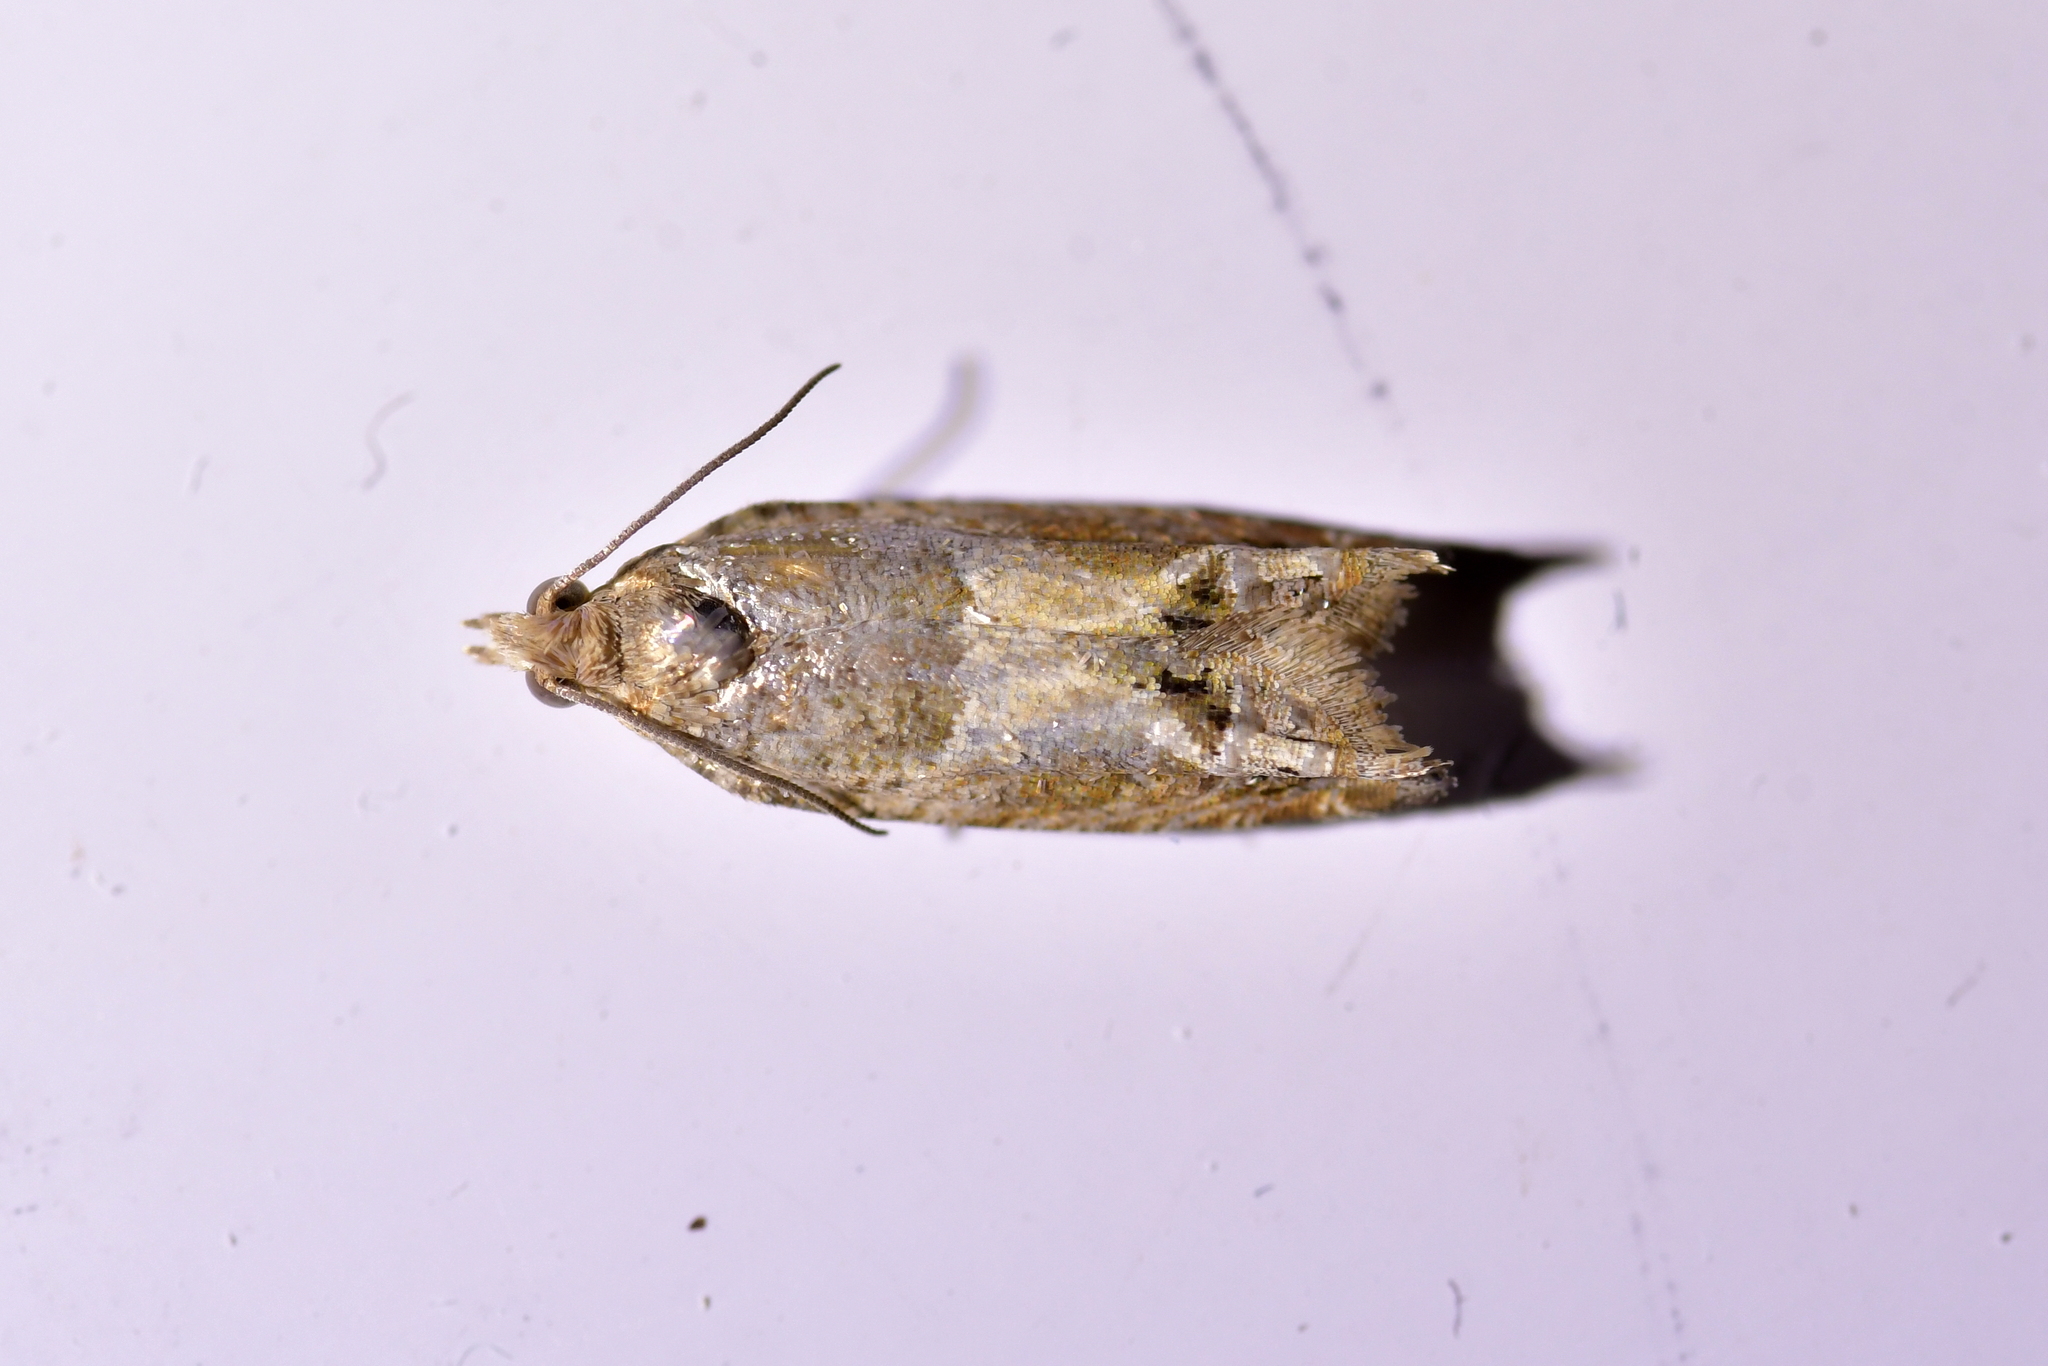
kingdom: Animalia
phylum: Arthropoda
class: Insecta
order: Lepidoptera
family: Tortricidae
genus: Crocidosema
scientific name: Crocidosema plebejana
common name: Southern bell
